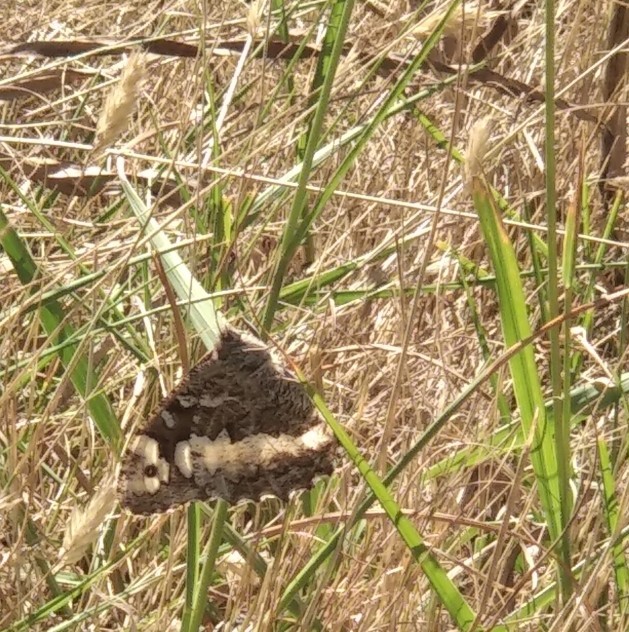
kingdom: Animalia
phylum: Arthropoda
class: Insecta
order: Lepidoptera
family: Lycaenidae
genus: Loweia
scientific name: Loweia tityrus
